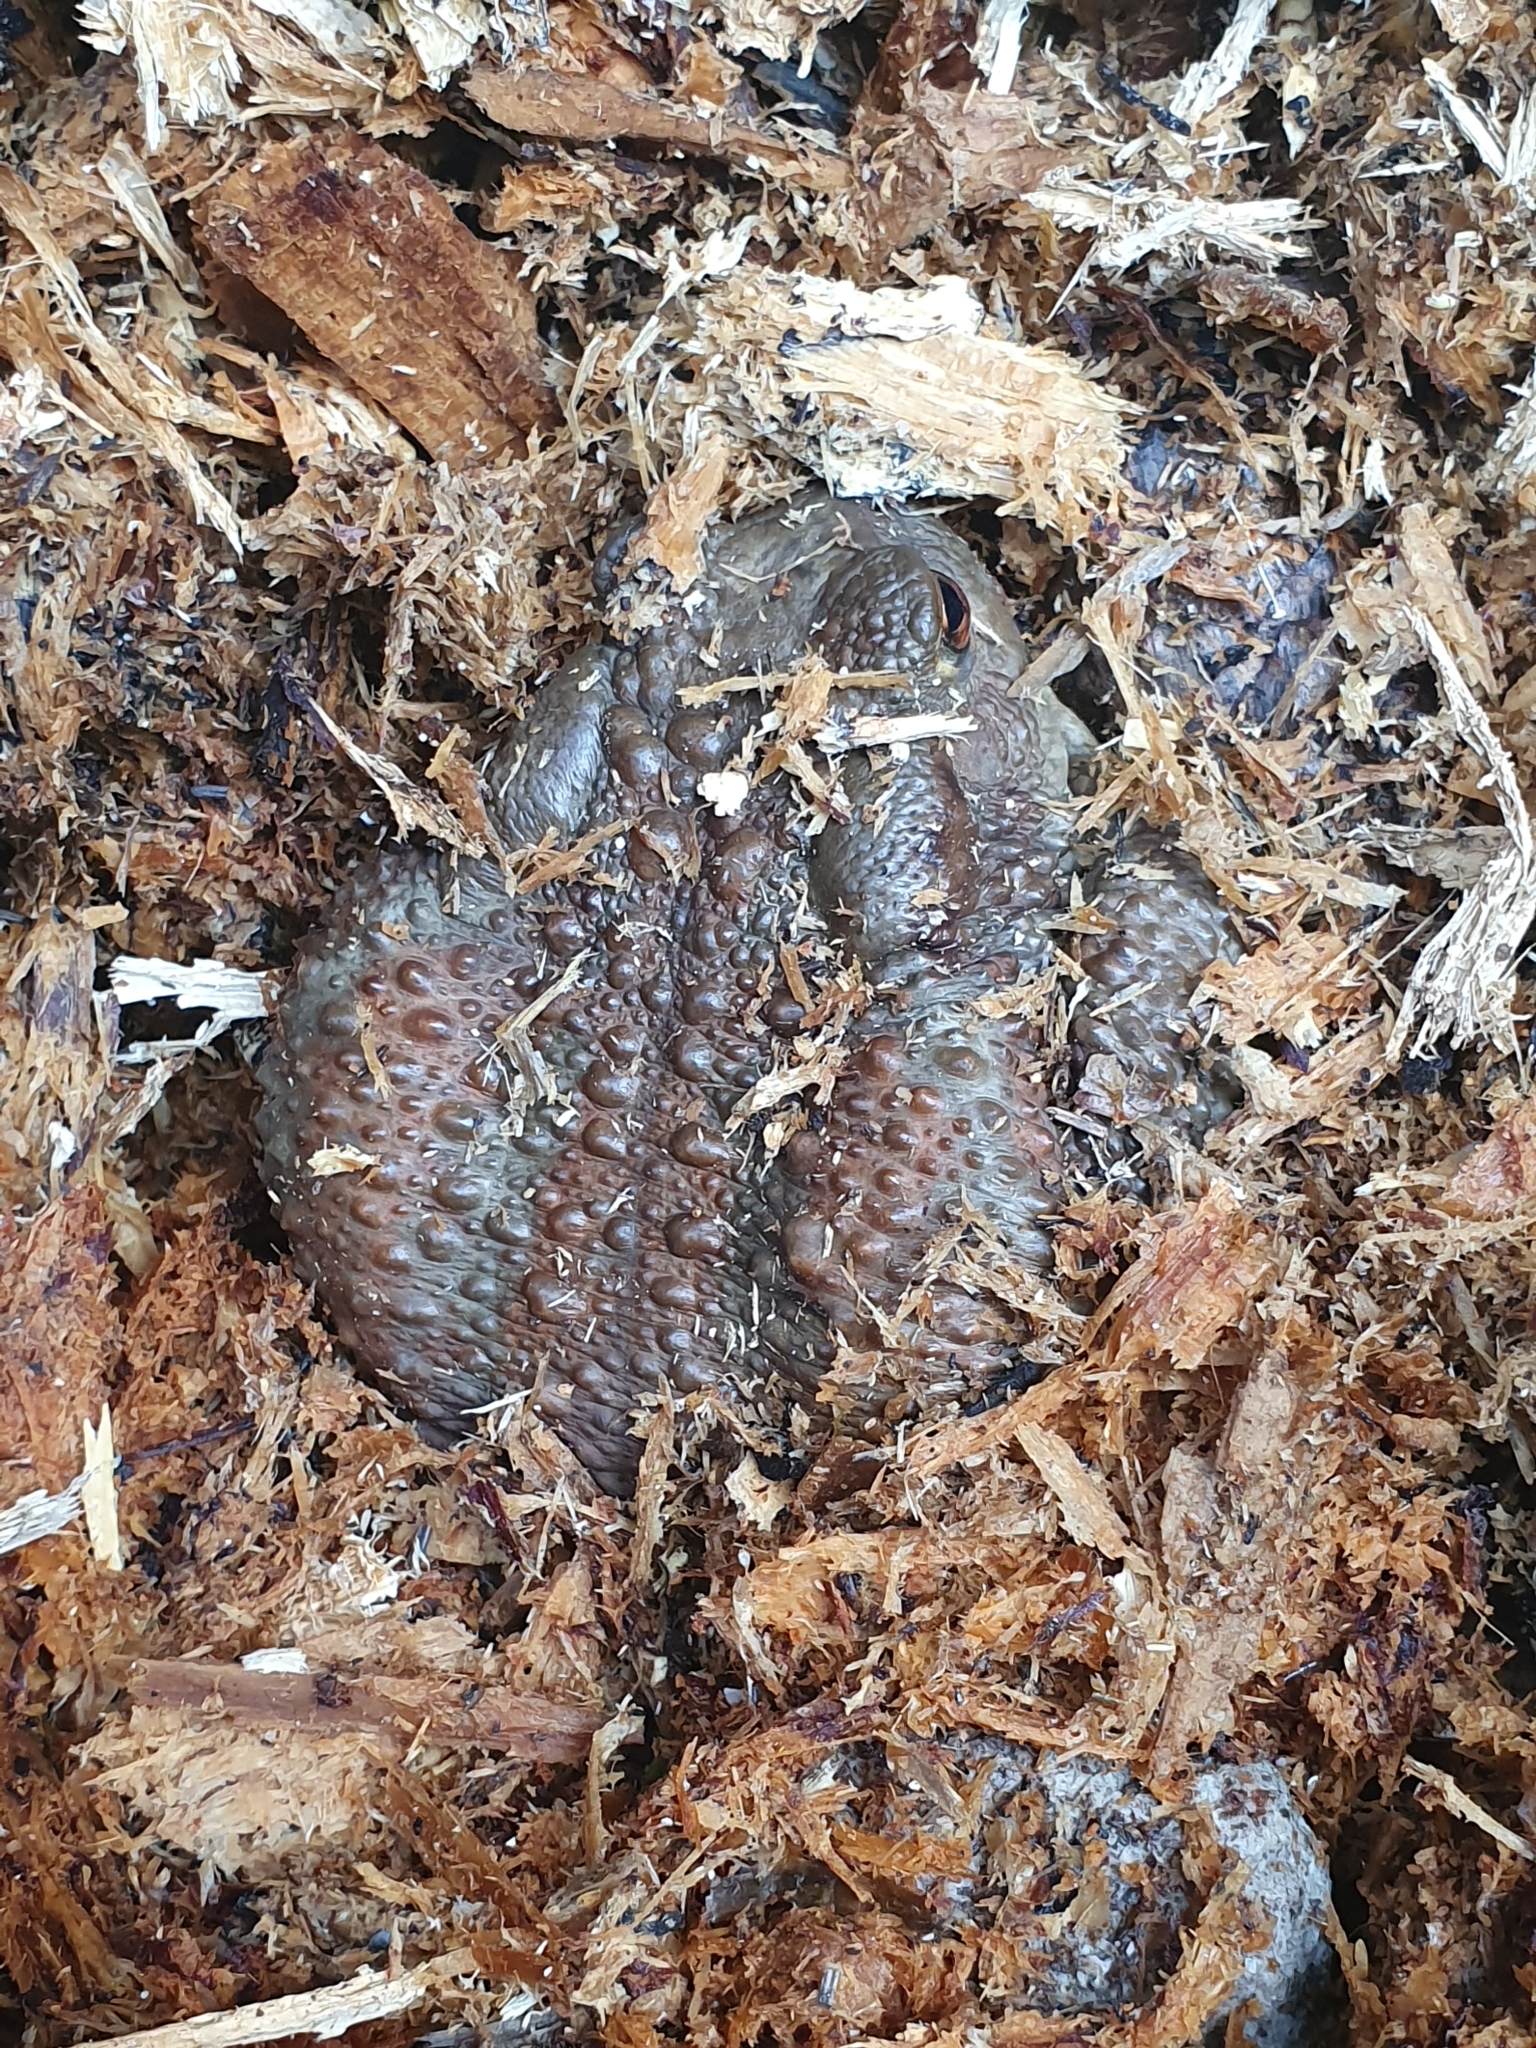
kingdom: Animalia
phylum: Chordata
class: Amphibia
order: Anura
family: Bufonidae
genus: Bufo
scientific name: Bufo bufo
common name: Common toad
